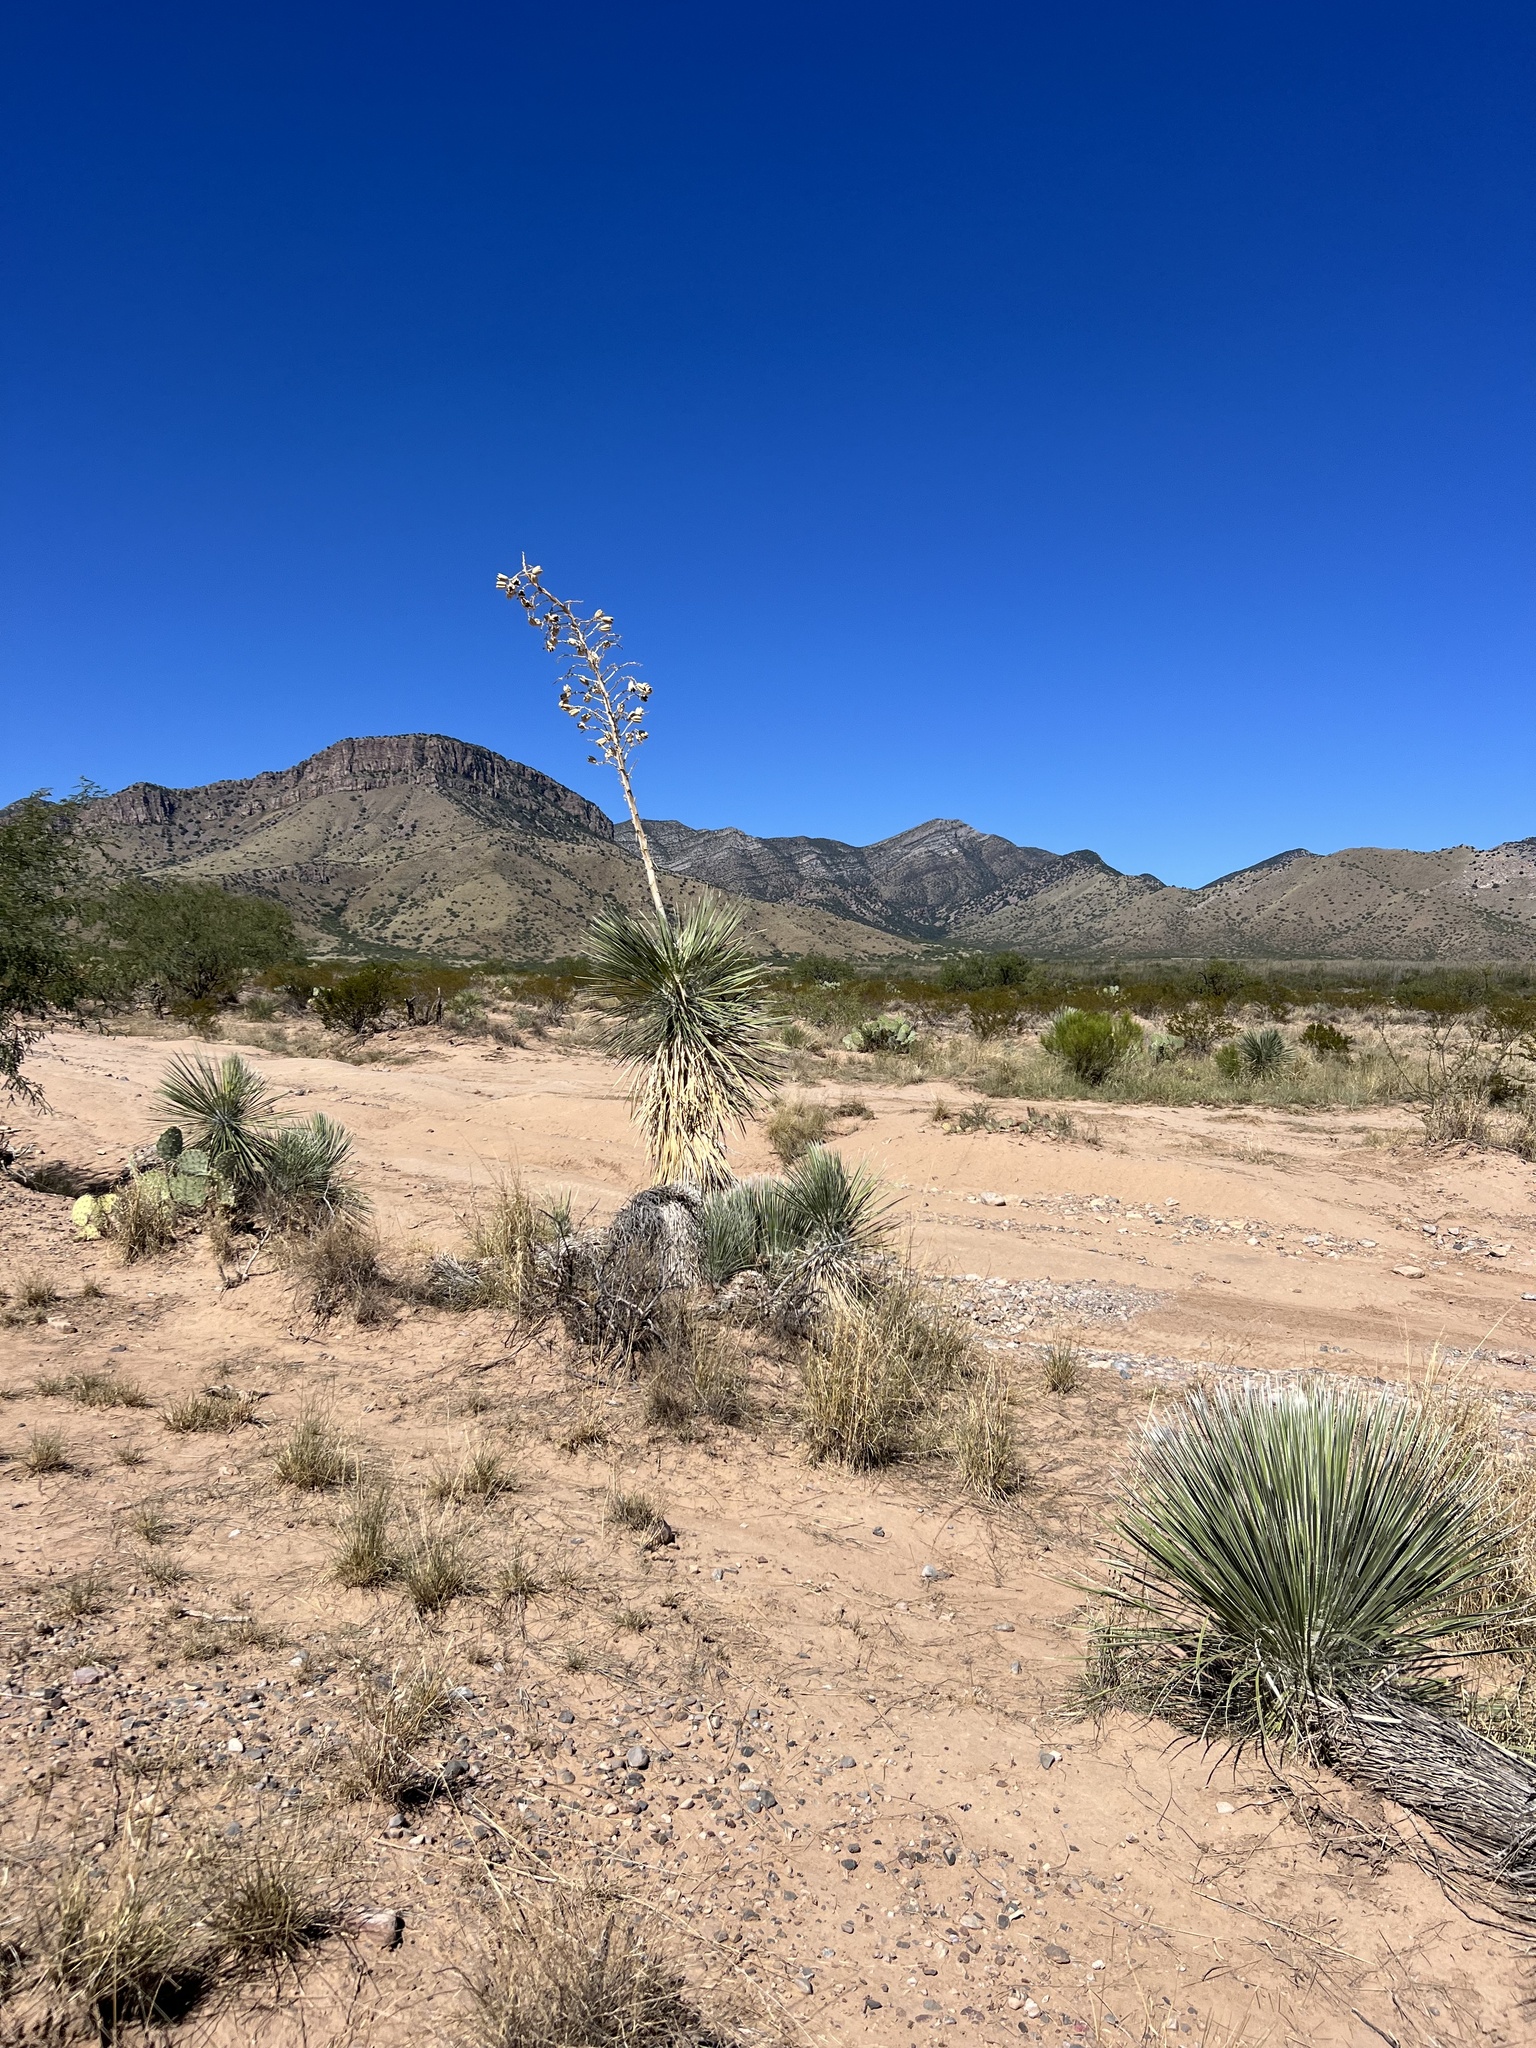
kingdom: Plantae
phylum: Tracheophyta
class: Liliopsida
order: Asparagales
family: Asparagaceae
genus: Yucca
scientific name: Yucca elata
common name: Palmella
